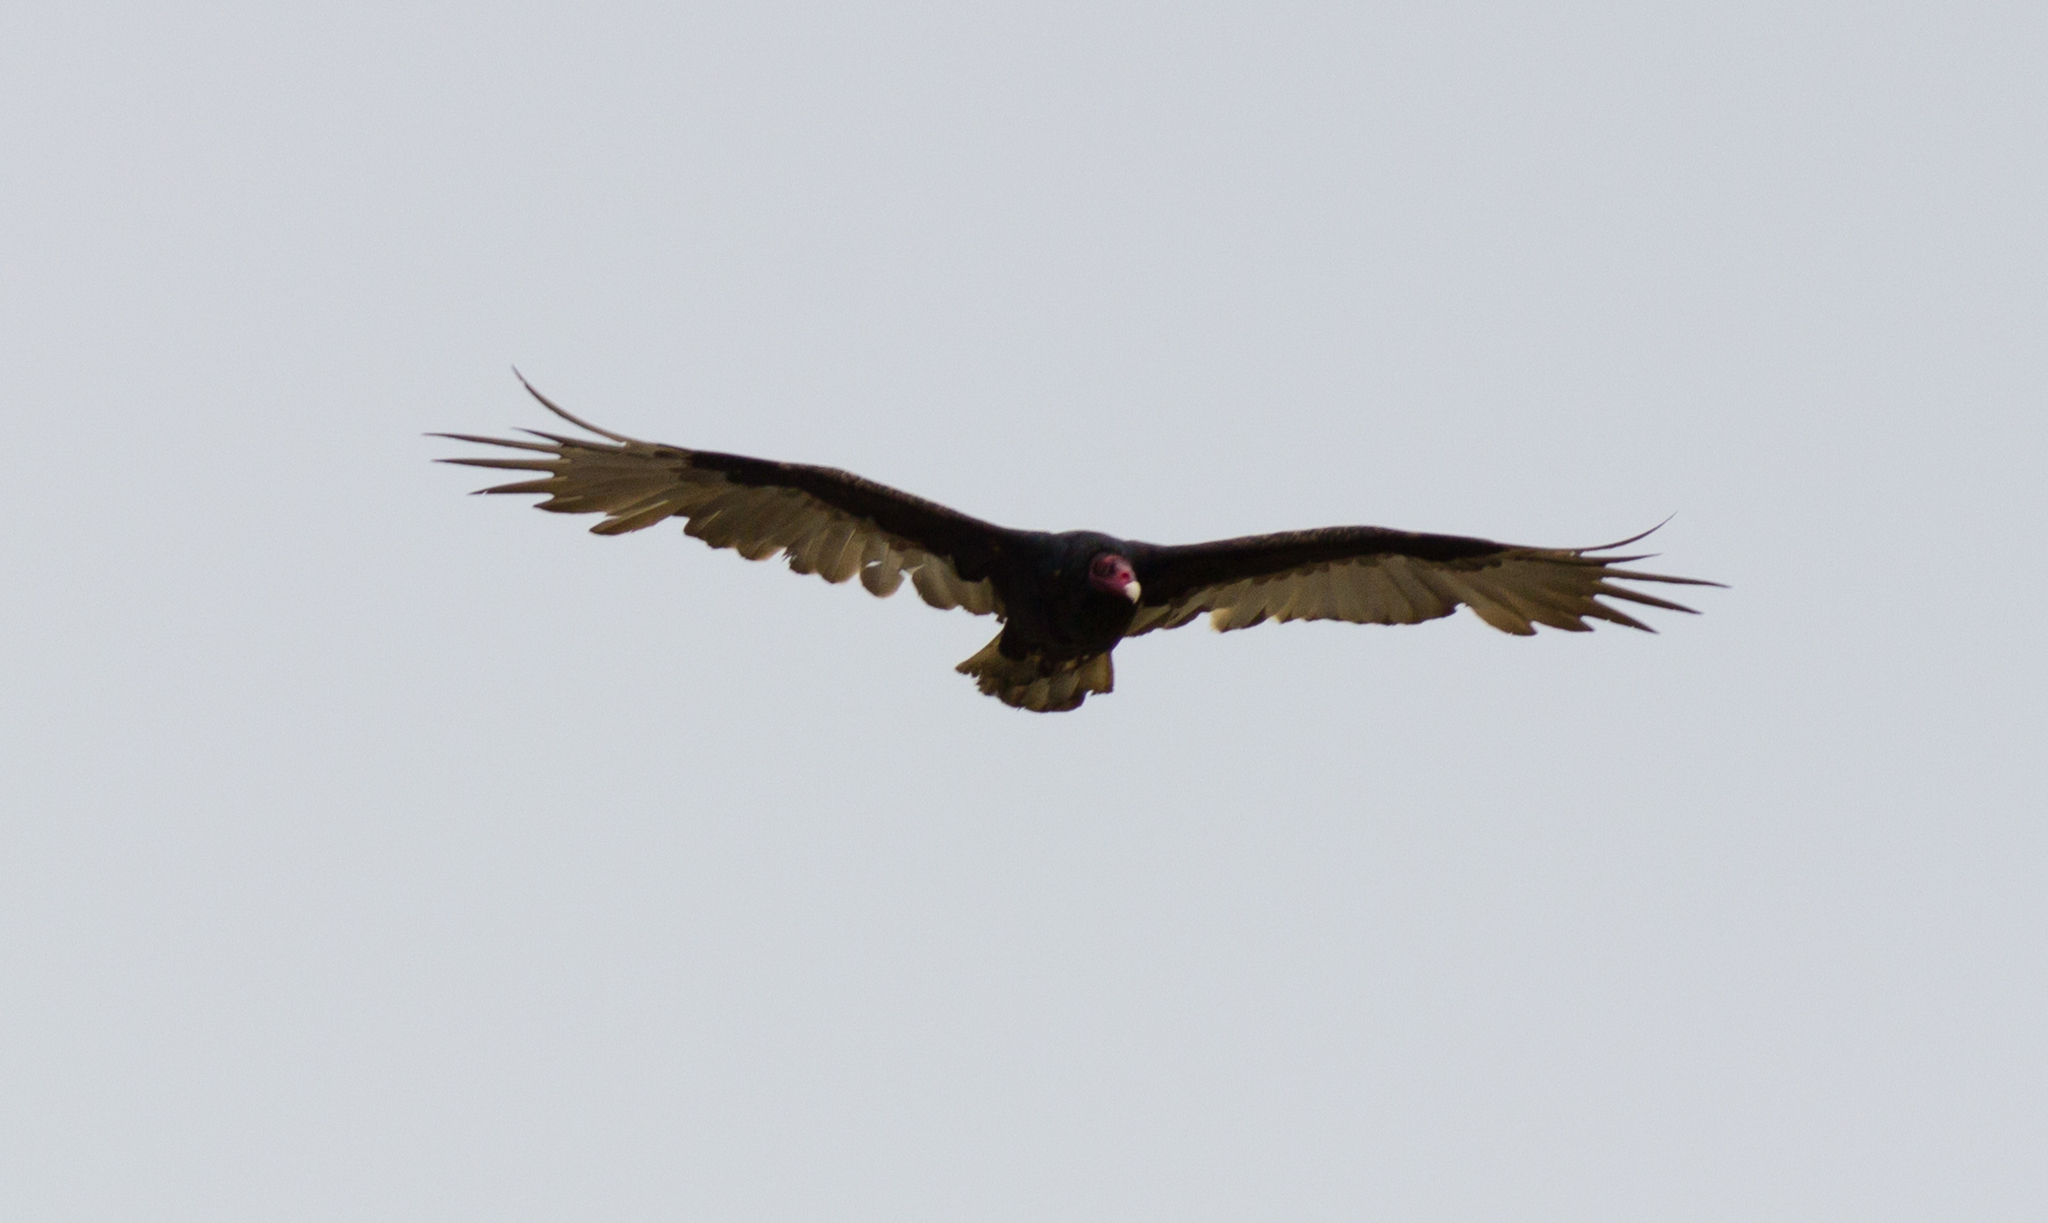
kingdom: Animalia
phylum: Chordata
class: Aves
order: Accipitriformes
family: Cathartidae
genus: Cathartes
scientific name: Cathartes aura
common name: Turkey vulture
